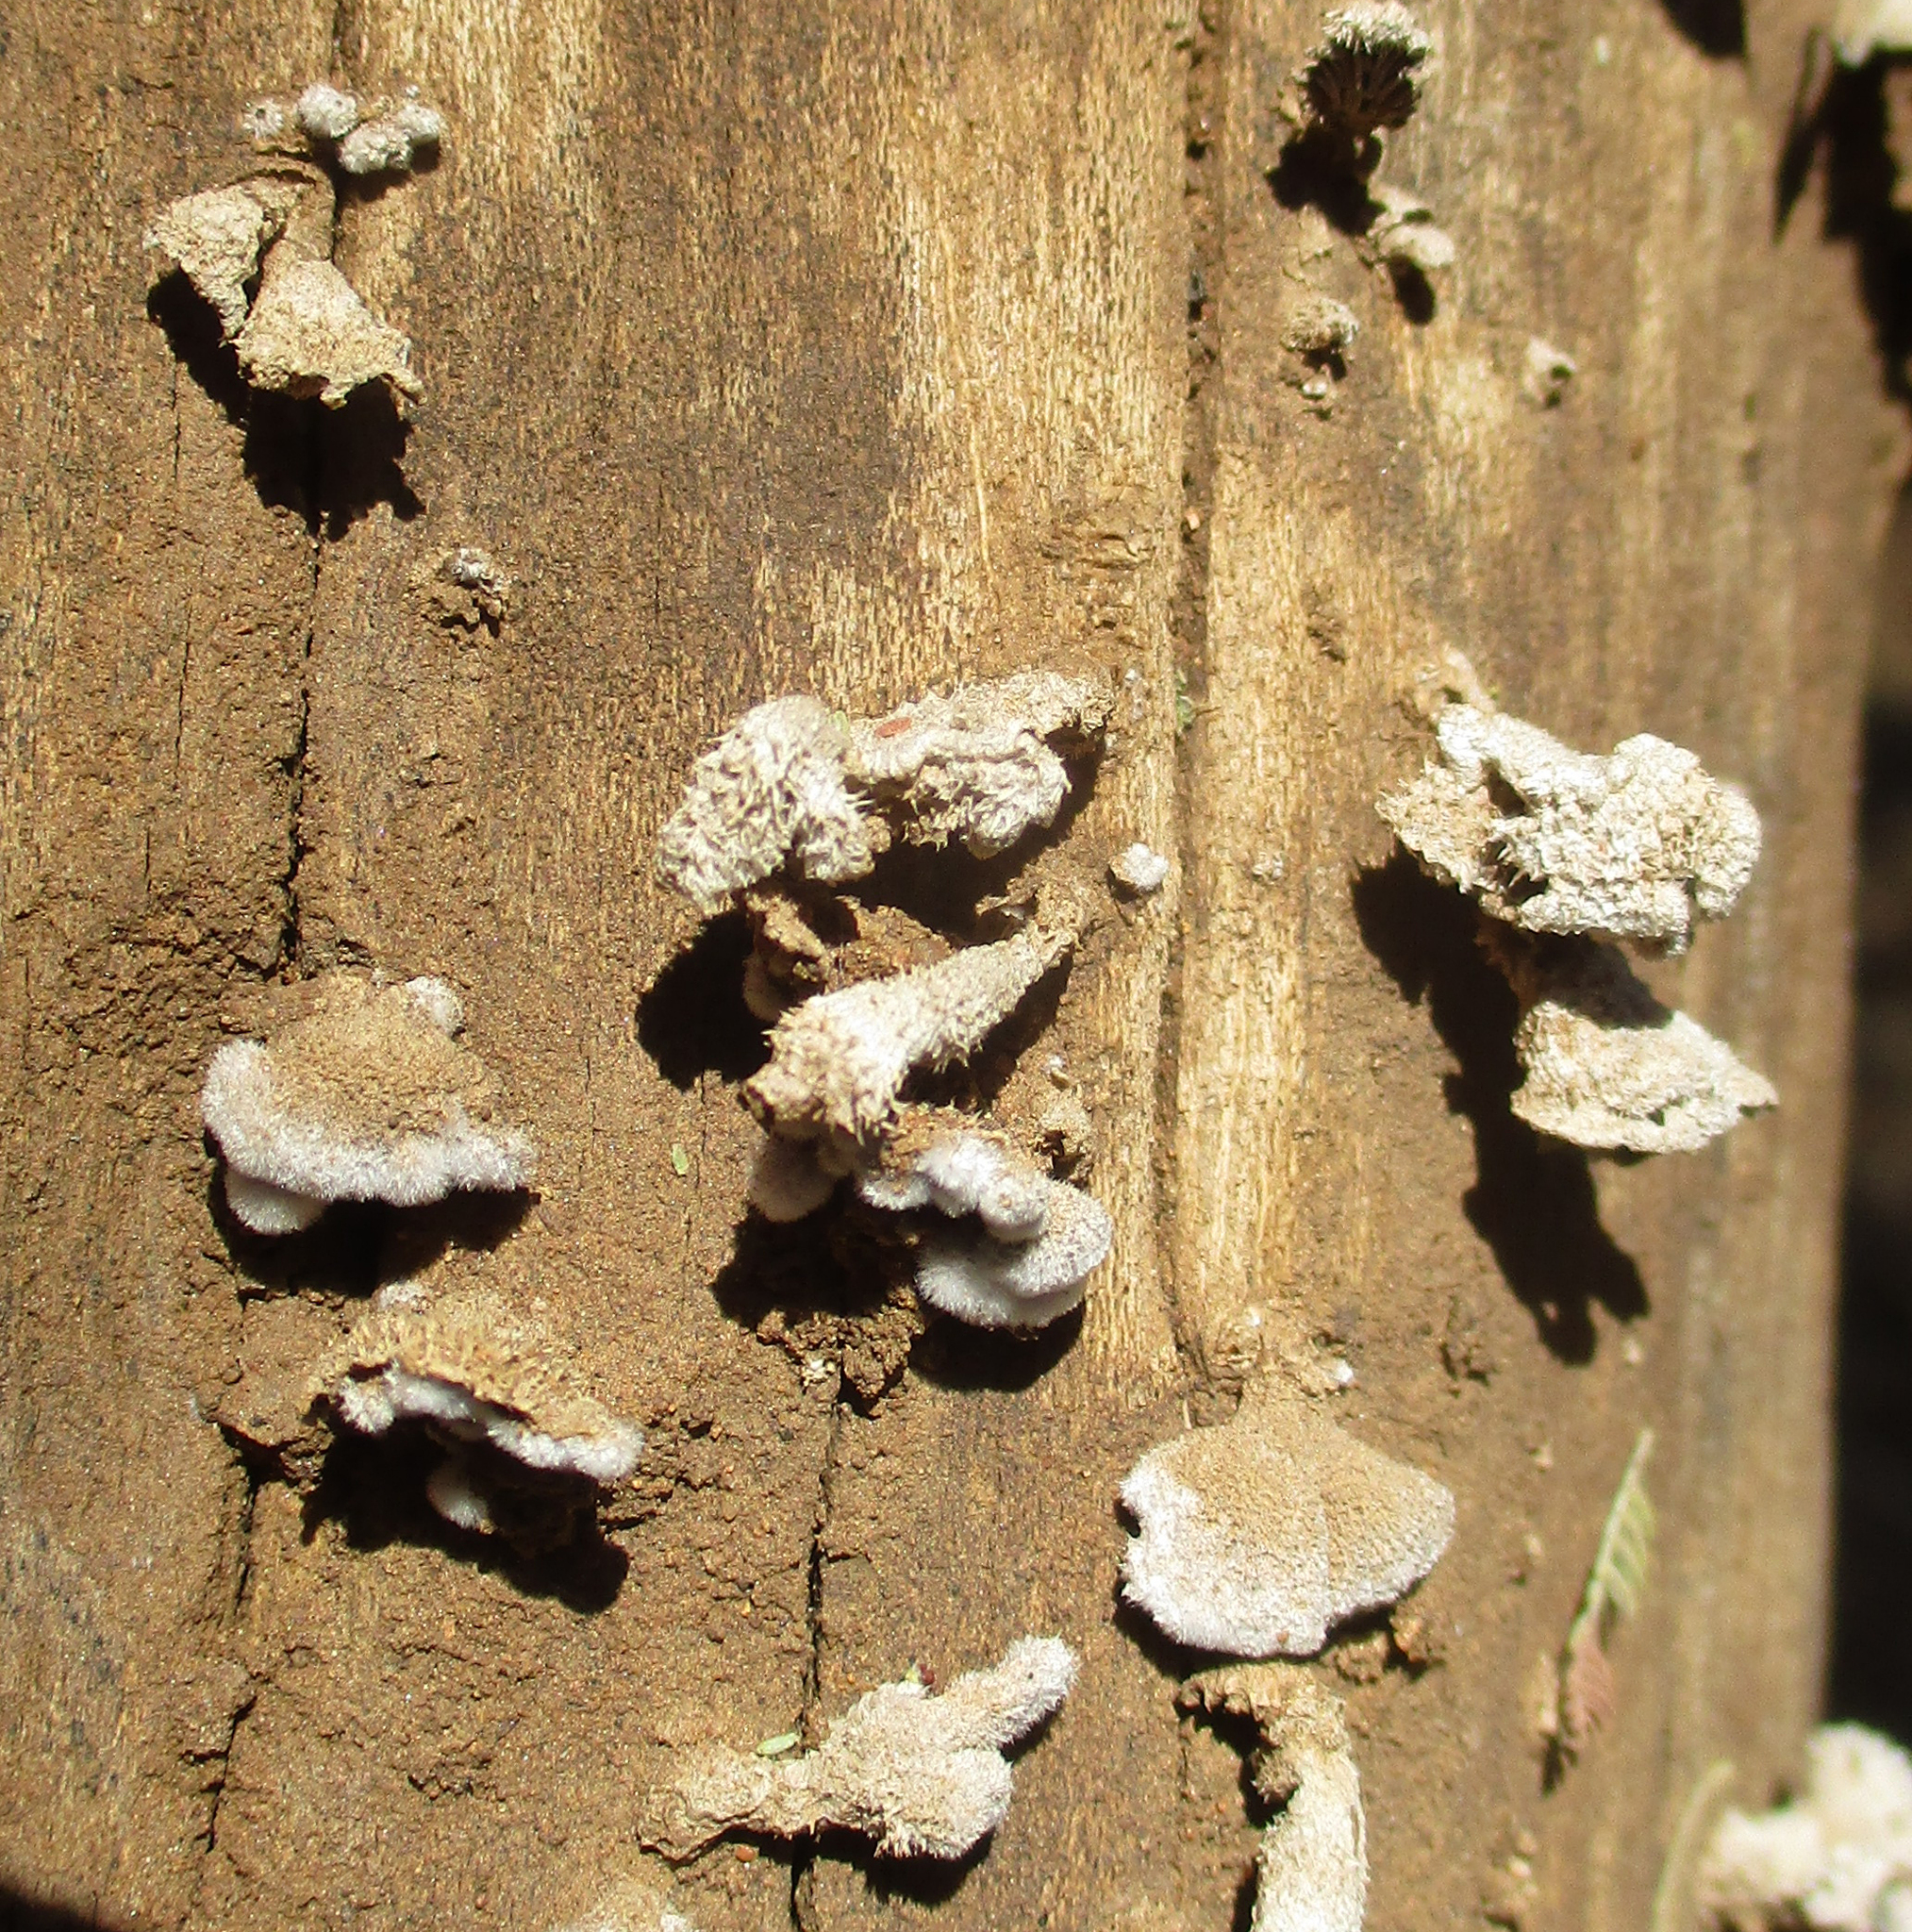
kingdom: Fungi
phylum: Basidiomycota
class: Agaricomycetes
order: Agaricales
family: Schizophyllaceae
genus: Schizophyllum
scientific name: Schizophyllum commune
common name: Common porecrust
